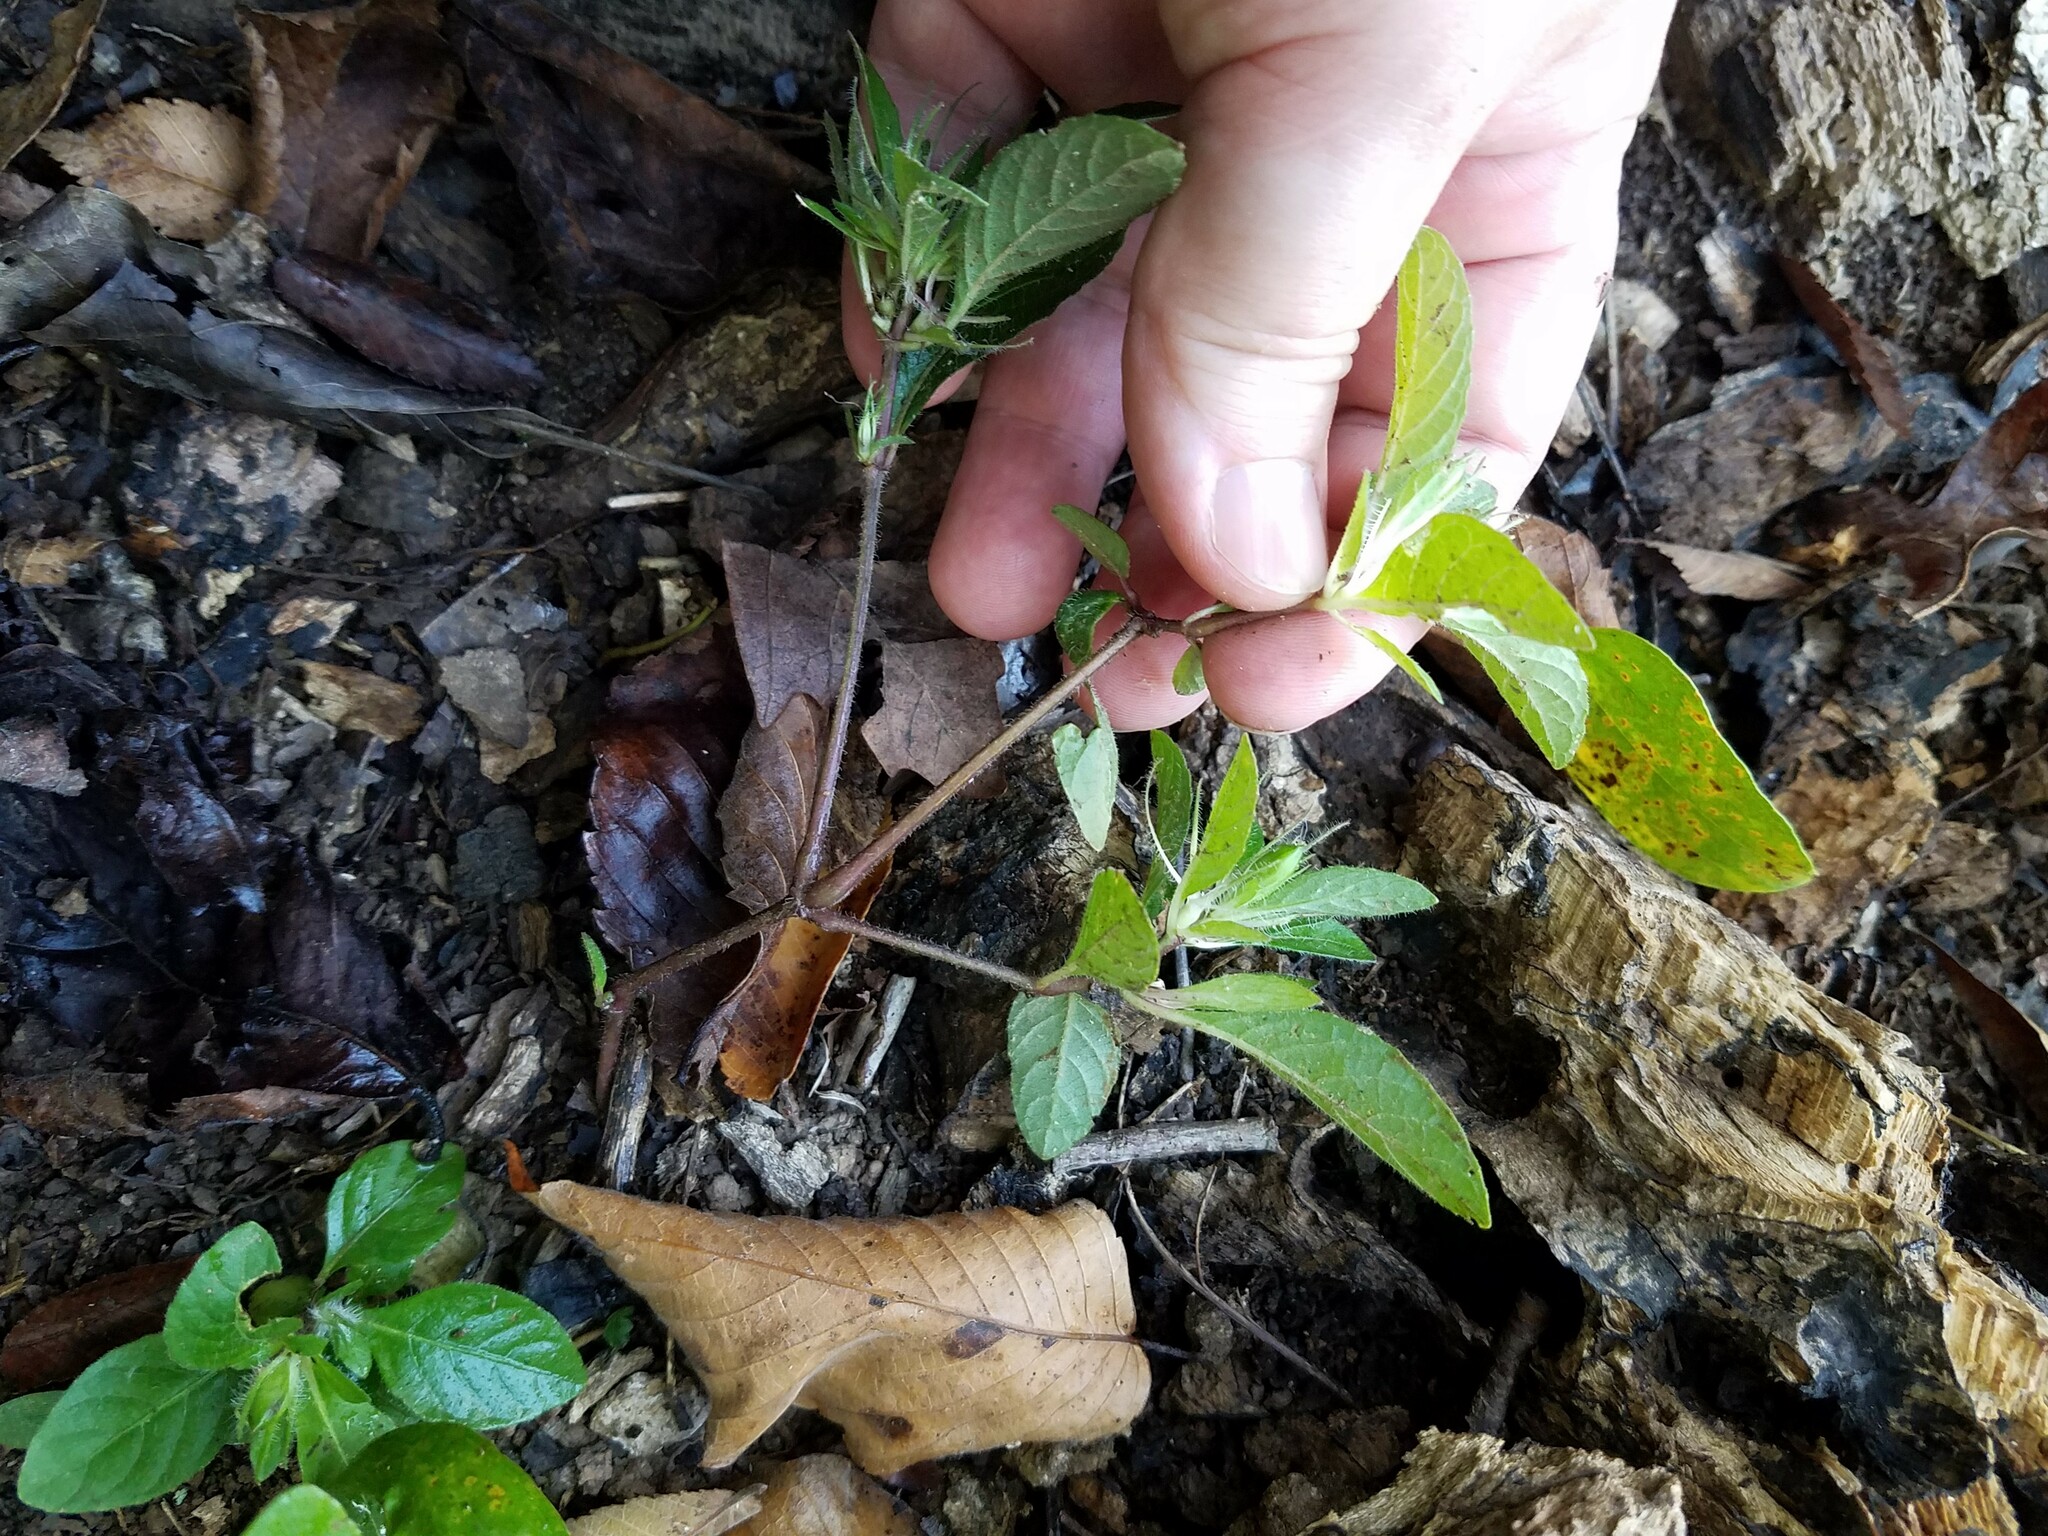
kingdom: Plantae
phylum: Tracheophyta
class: Magnoliopsida
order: Lamiales
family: Acanthaceae
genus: Ruellia
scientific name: Ruellia caroliniensis
